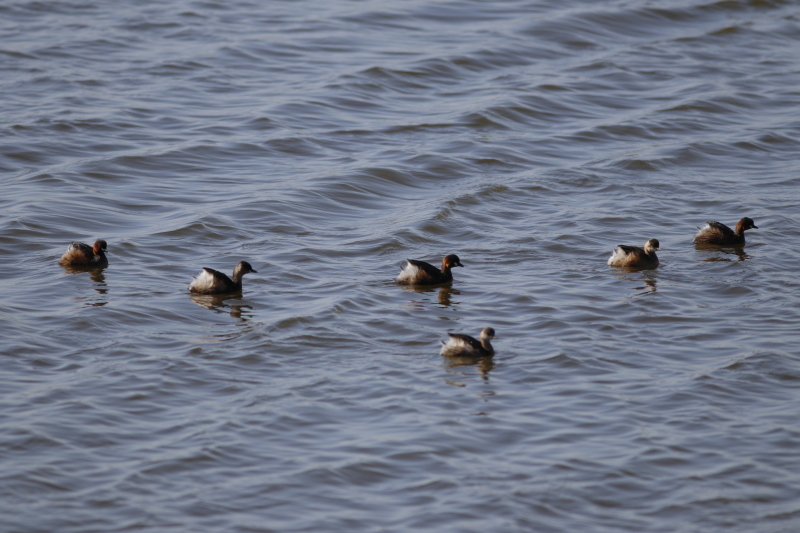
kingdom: Animalia
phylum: Chordata
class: Aves
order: Podicipediformes
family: Podicipedidae
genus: Tachybaptus
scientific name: Tachybaptus ruficollis
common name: Little grebe
